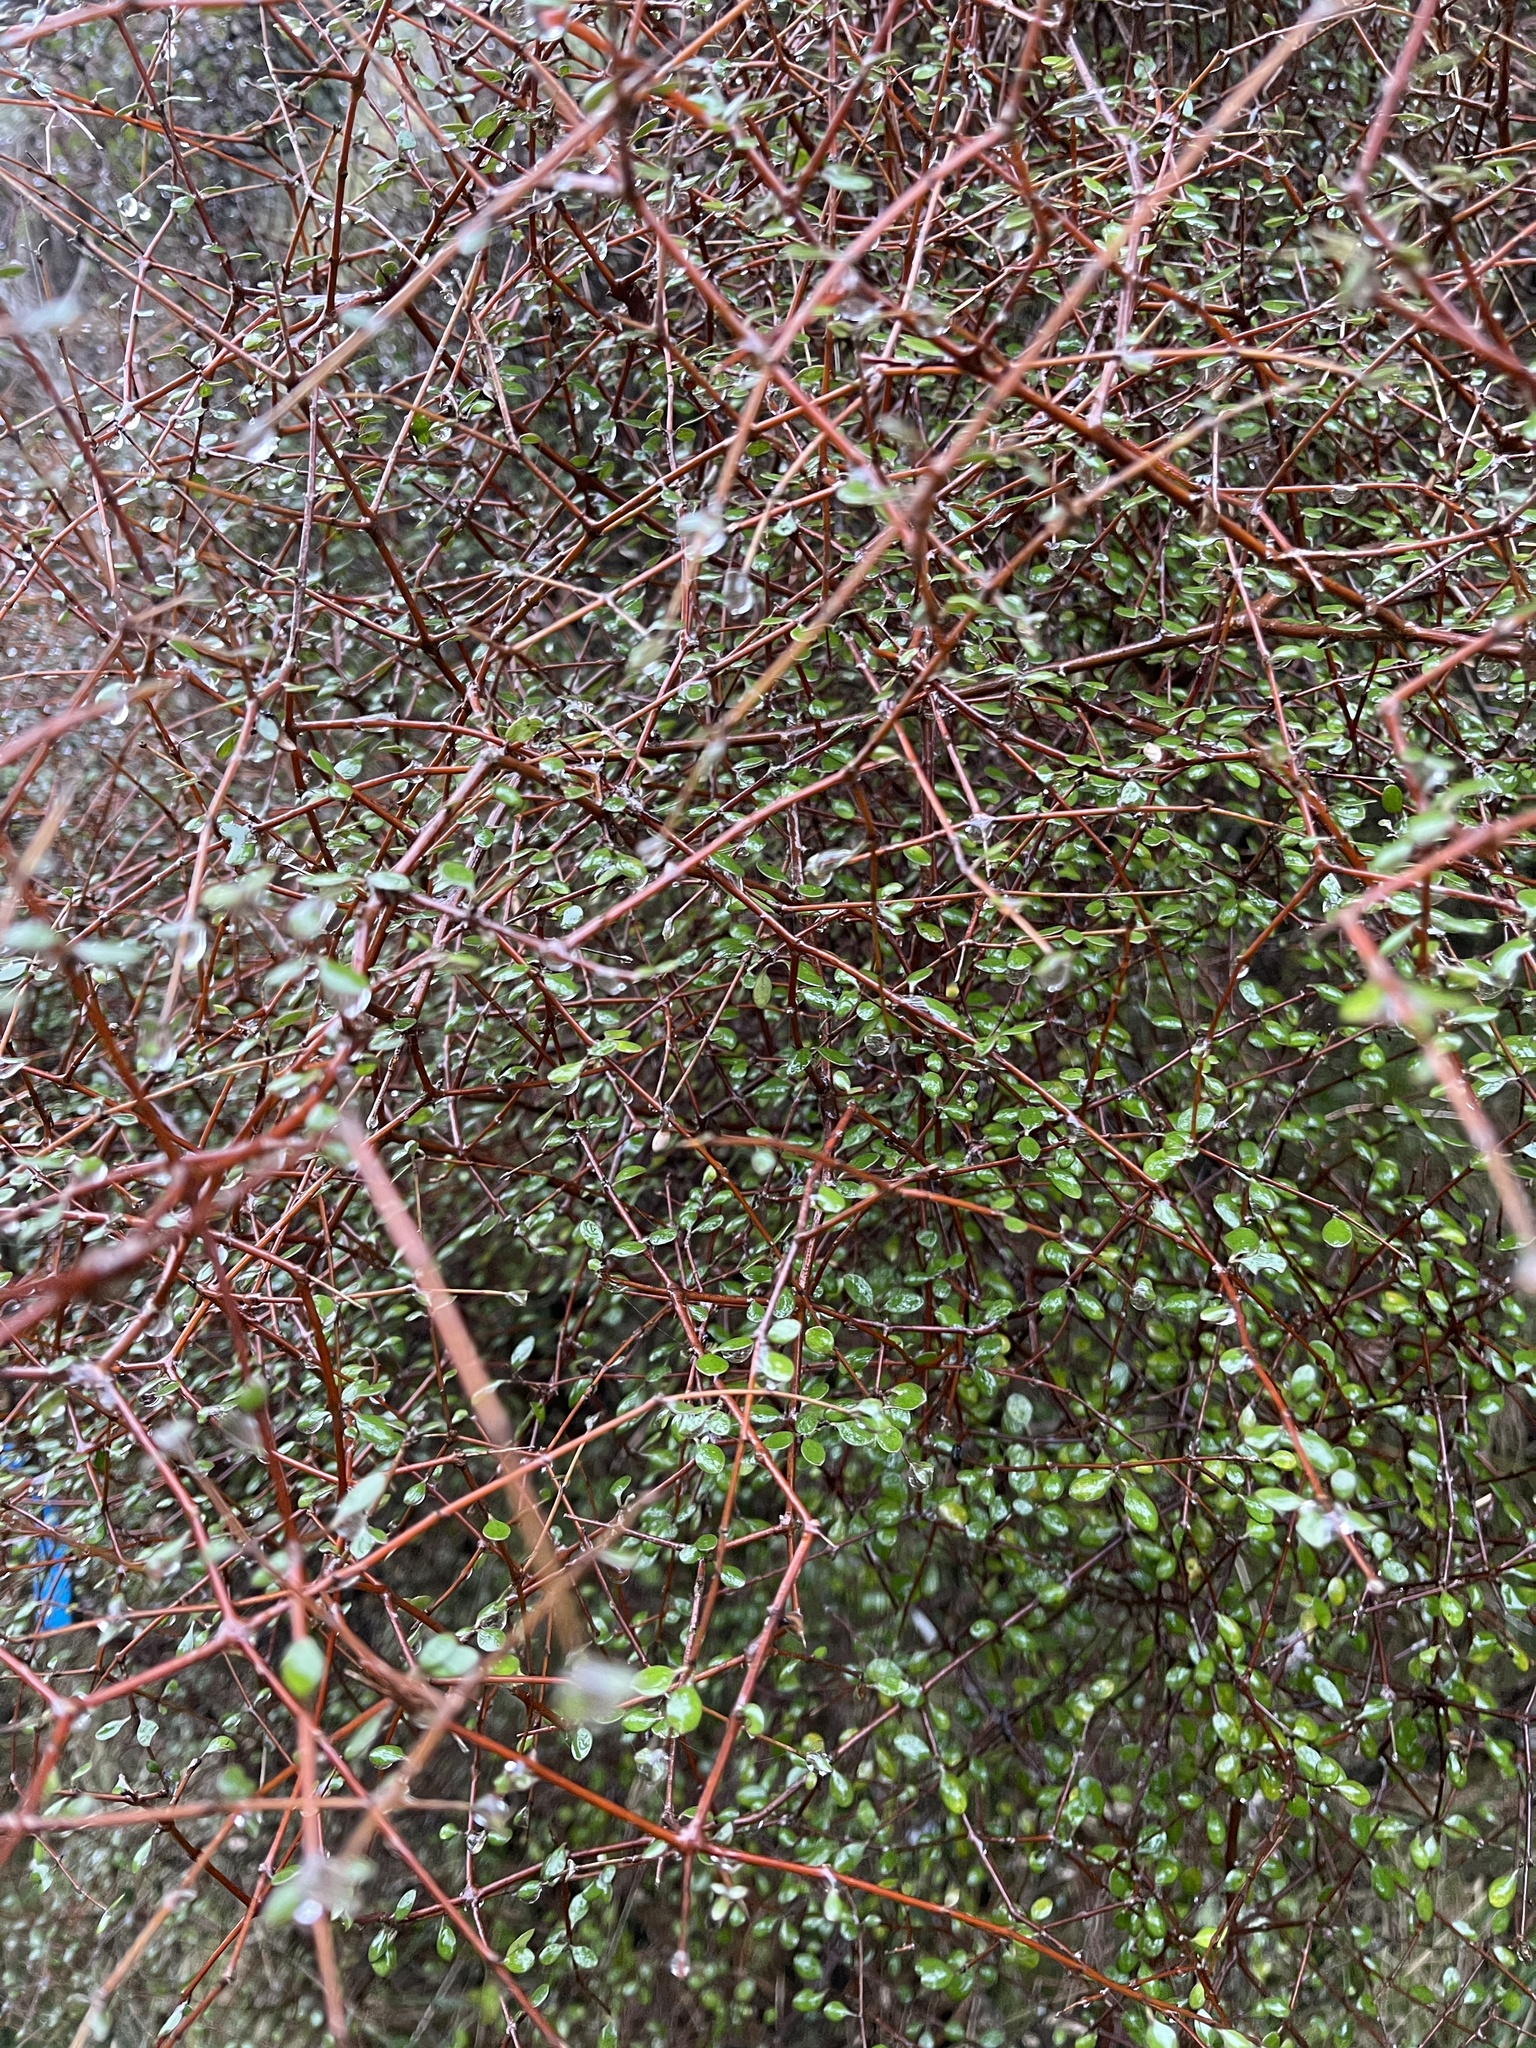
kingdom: Plantae
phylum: Tracheophyta
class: Magnoliopsida
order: Gentianales
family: Rubiaceae
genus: Coprosma
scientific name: Coprosma rigida
